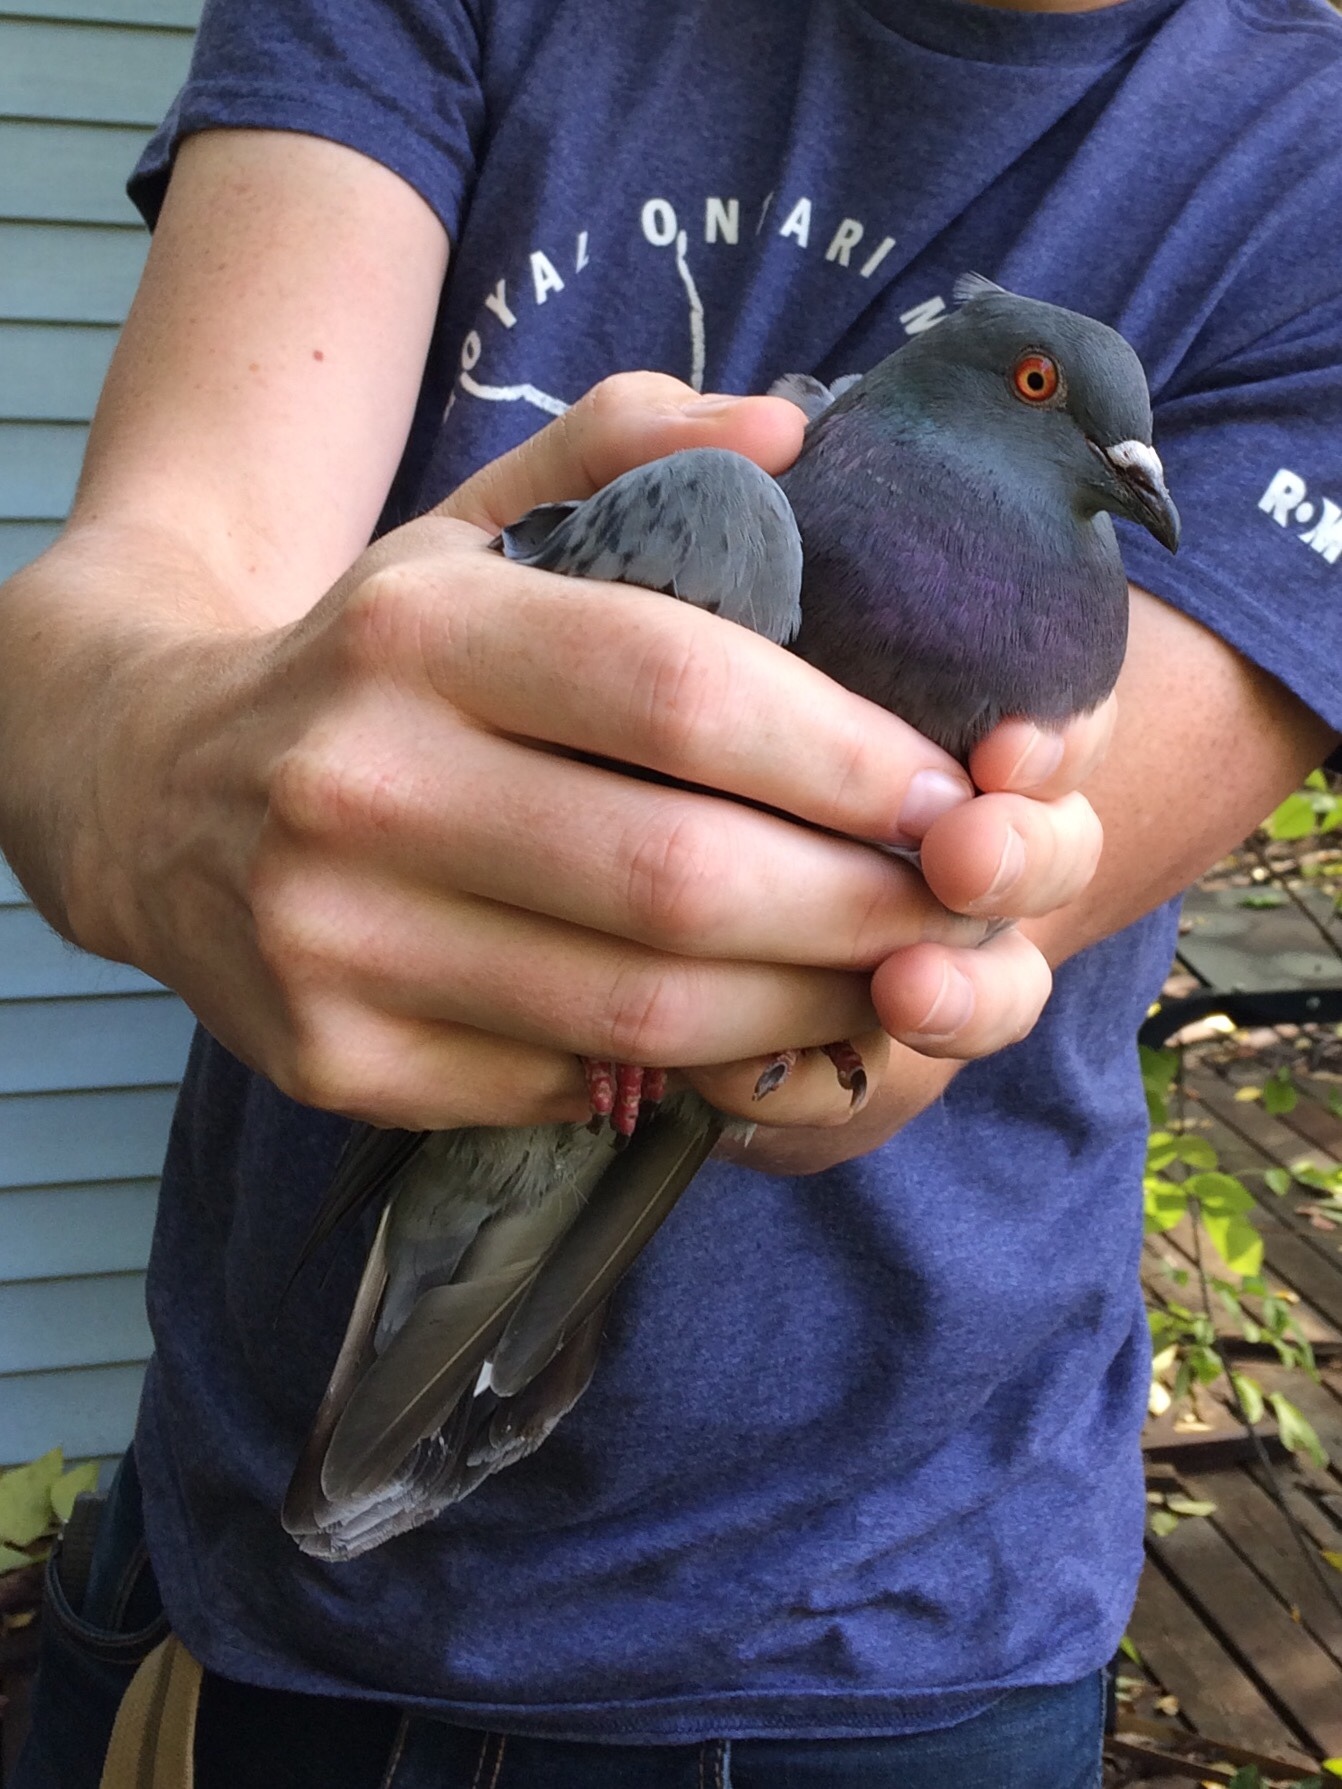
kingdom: Animalia
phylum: Chordata
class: Aves
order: Columbiformes
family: Columbidae
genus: Columba
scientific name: Columba livia
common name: Rock pigeon
